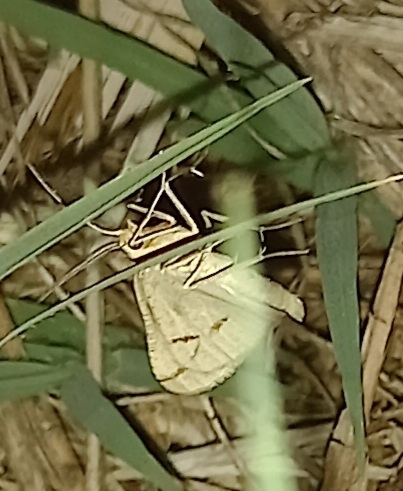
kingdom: Animalia
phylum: Arthropoda
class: Insecta
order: Lepidoptera
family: Geometridae
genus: Aspitates
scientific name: Aspitates ochrearia
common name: Yellow belle
